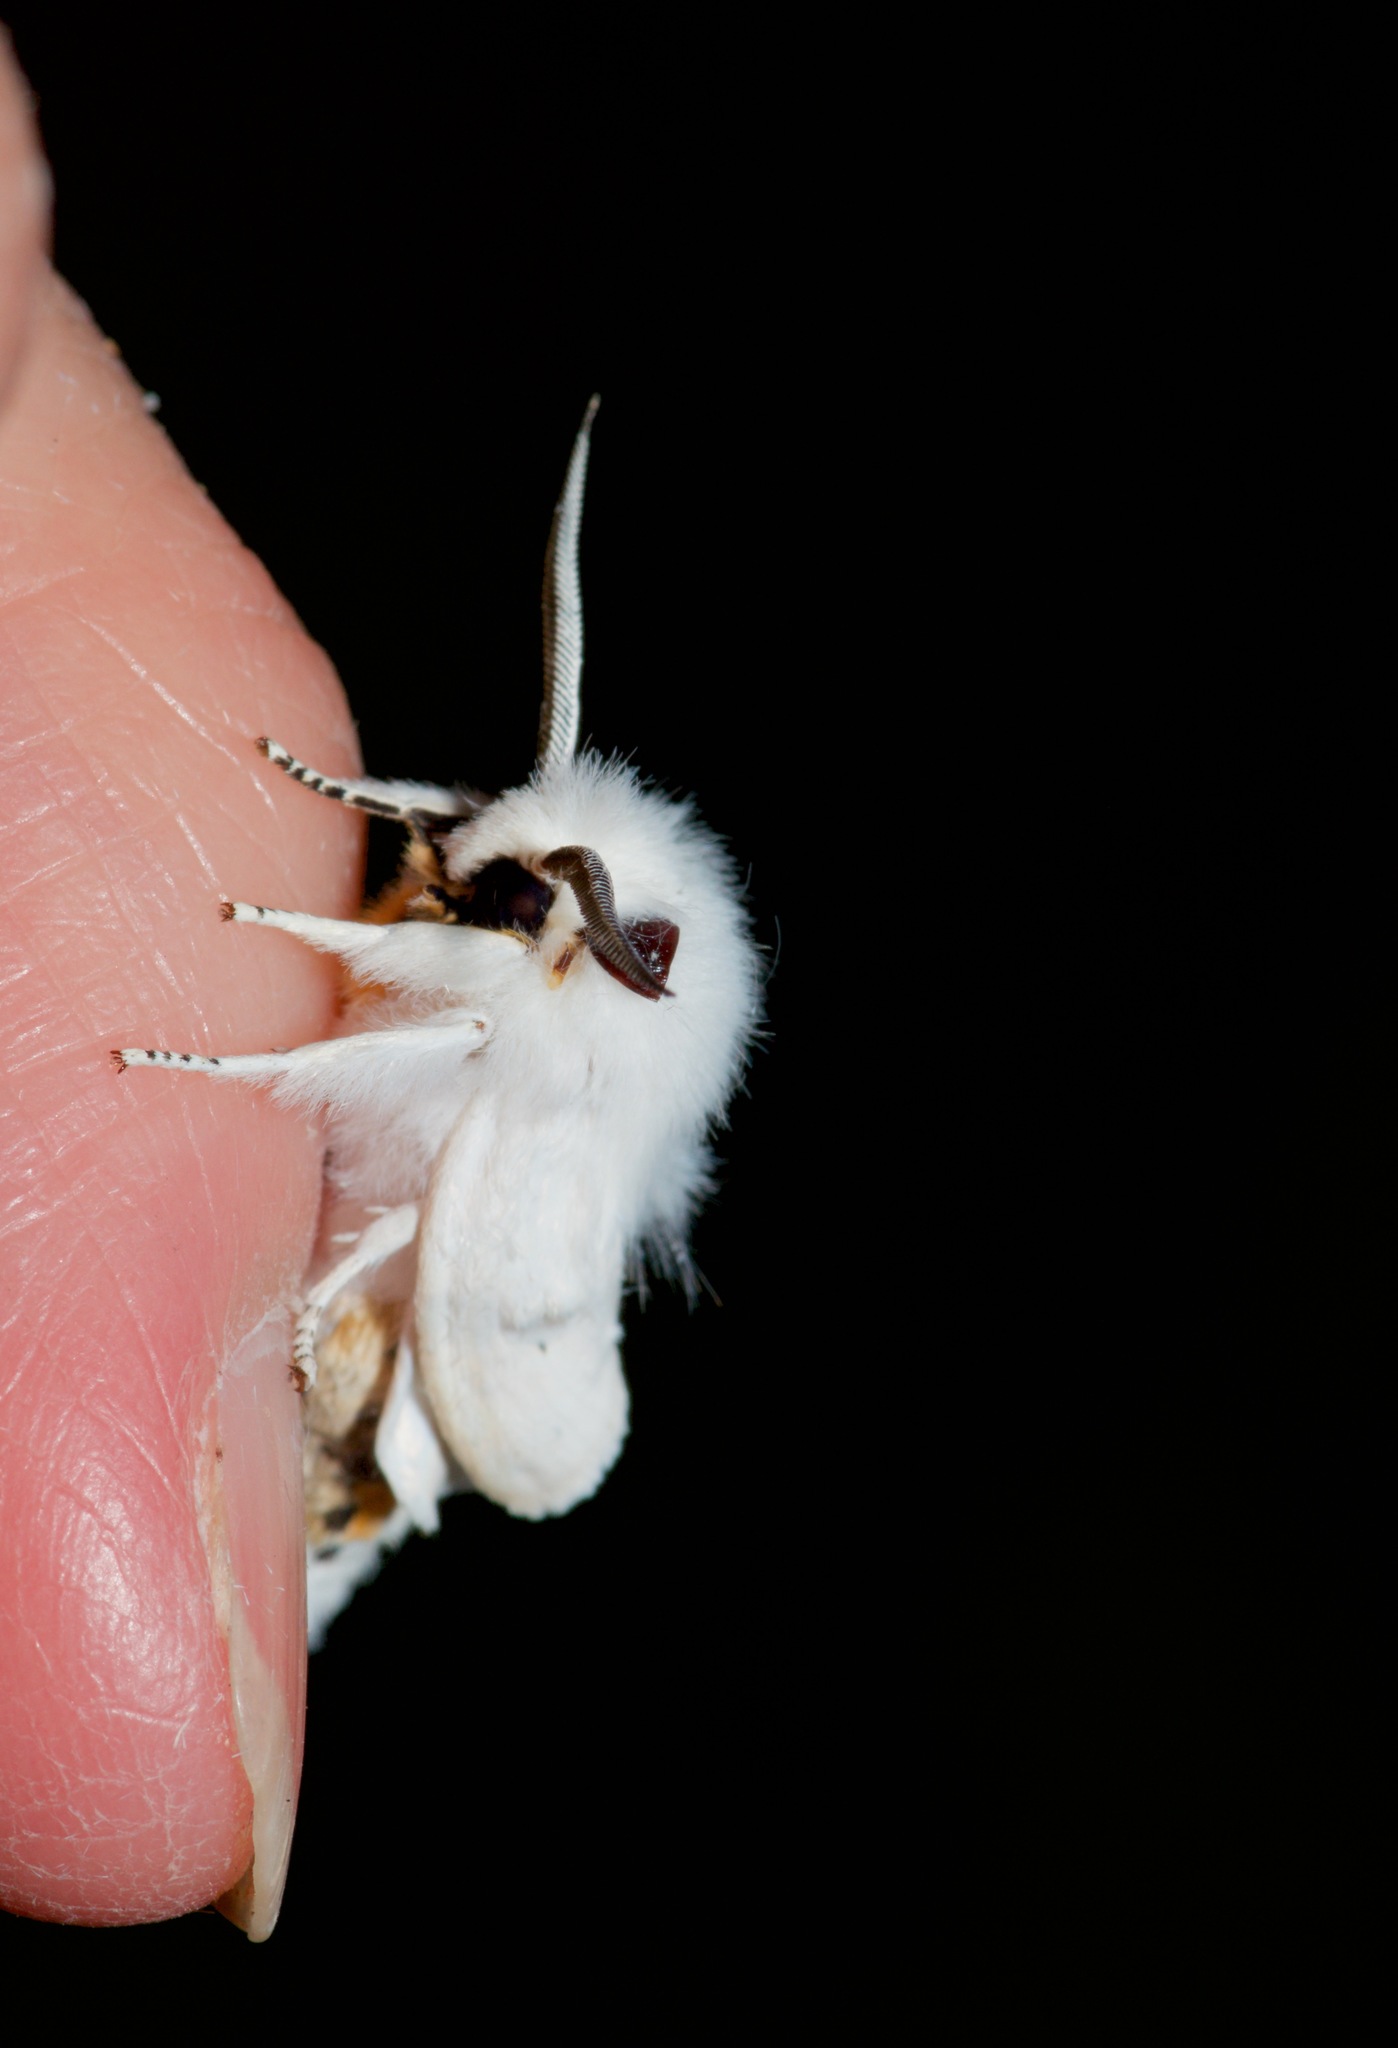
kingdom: Animalia
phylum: Arthropoda
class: Insecta
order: Lepidoptera
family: Erebidae
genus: Spilosoma
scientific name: Spilosoma virginica
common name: Virginia tiger moth
